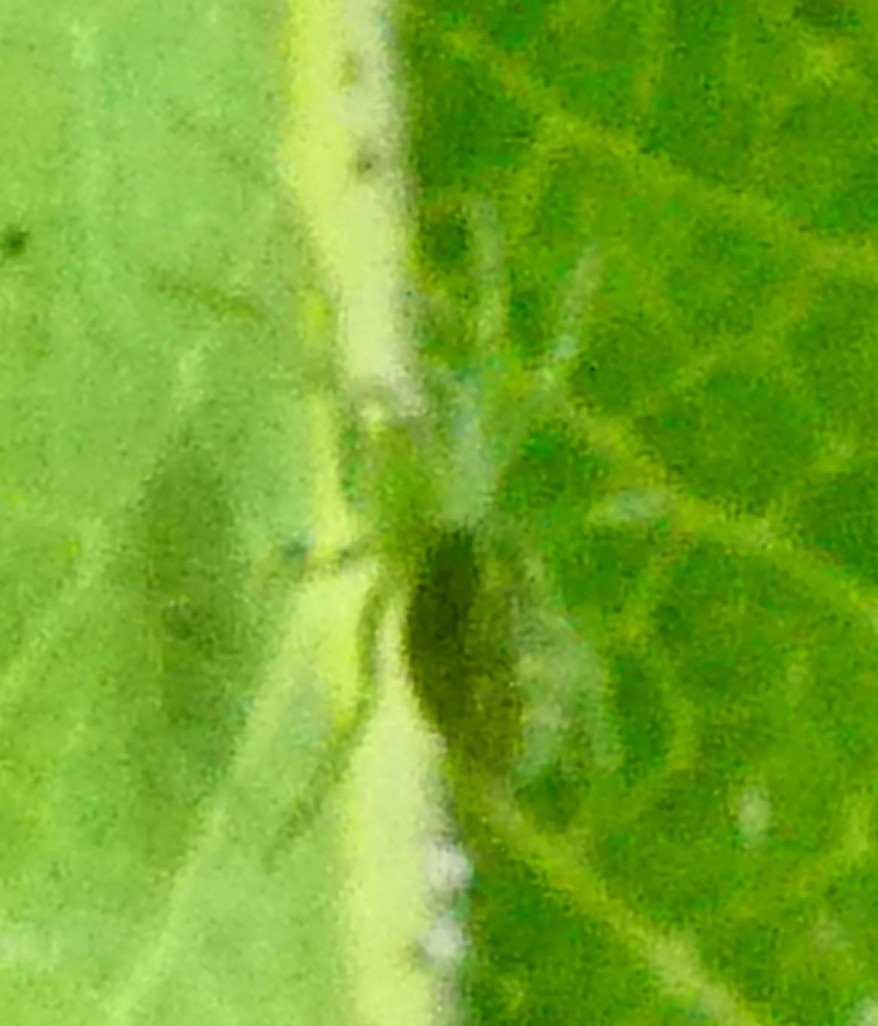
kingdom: Animalia
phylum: Arthropoda
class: Arachnida
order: Araneae
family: Dictynidae
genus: Nigma
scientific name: Nigma walckenaeri
